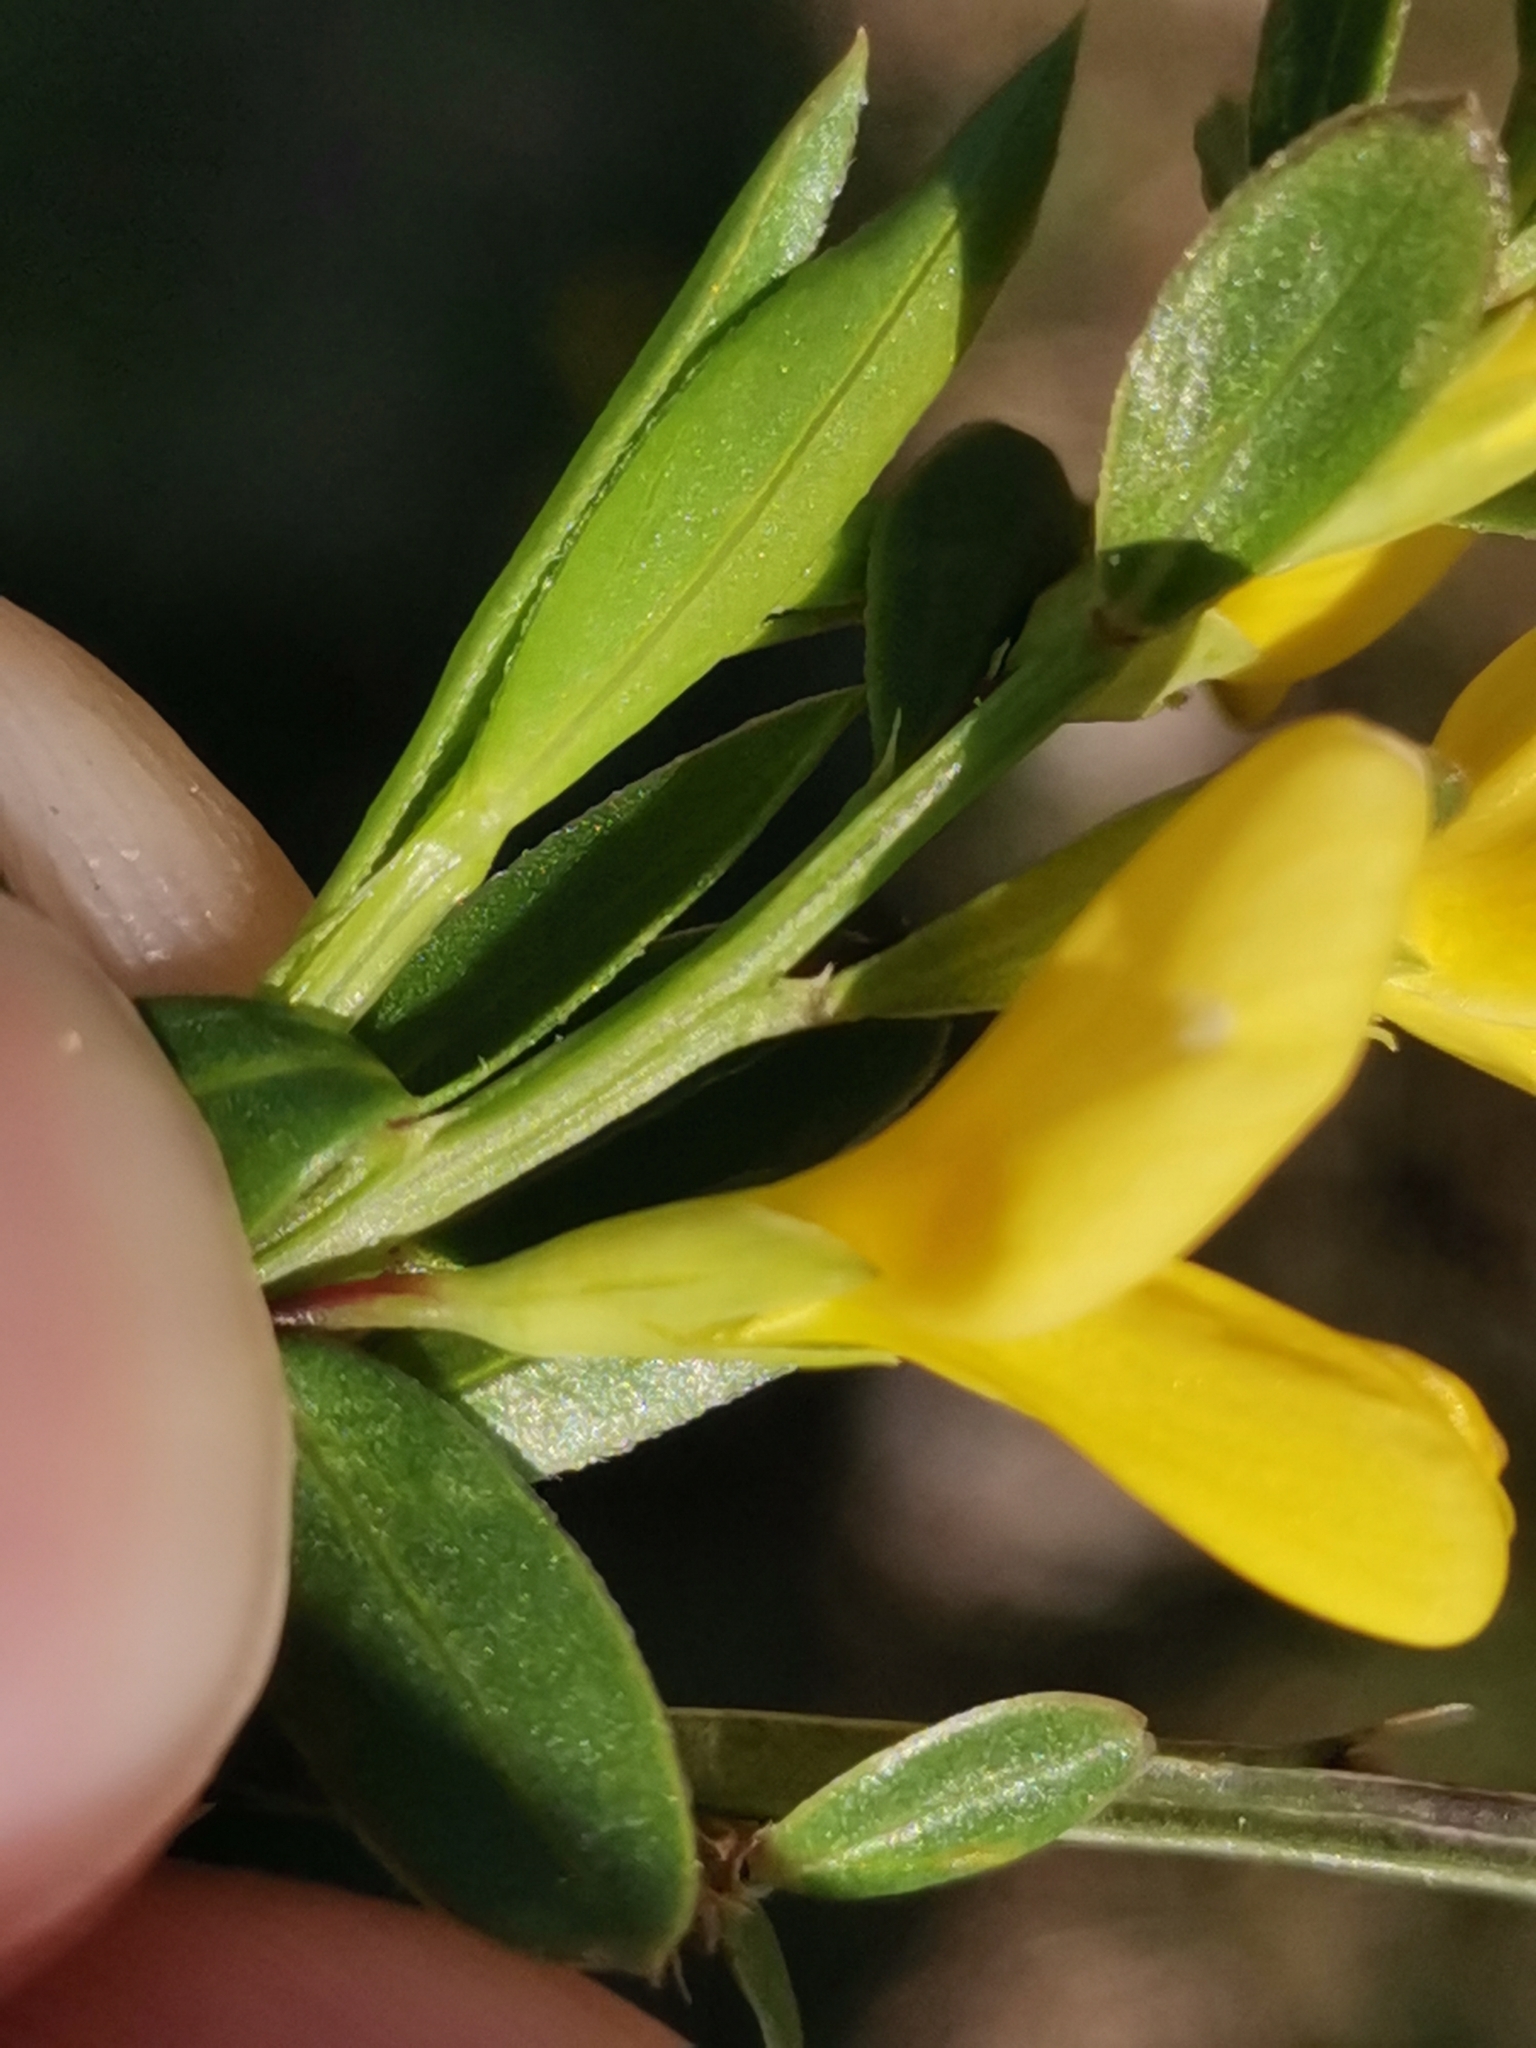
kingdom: Plantae
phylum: Tracheophyta
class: Magnoliopsida
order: Fabales
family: Fabaceae
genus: Genista
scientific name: Genista januensis
